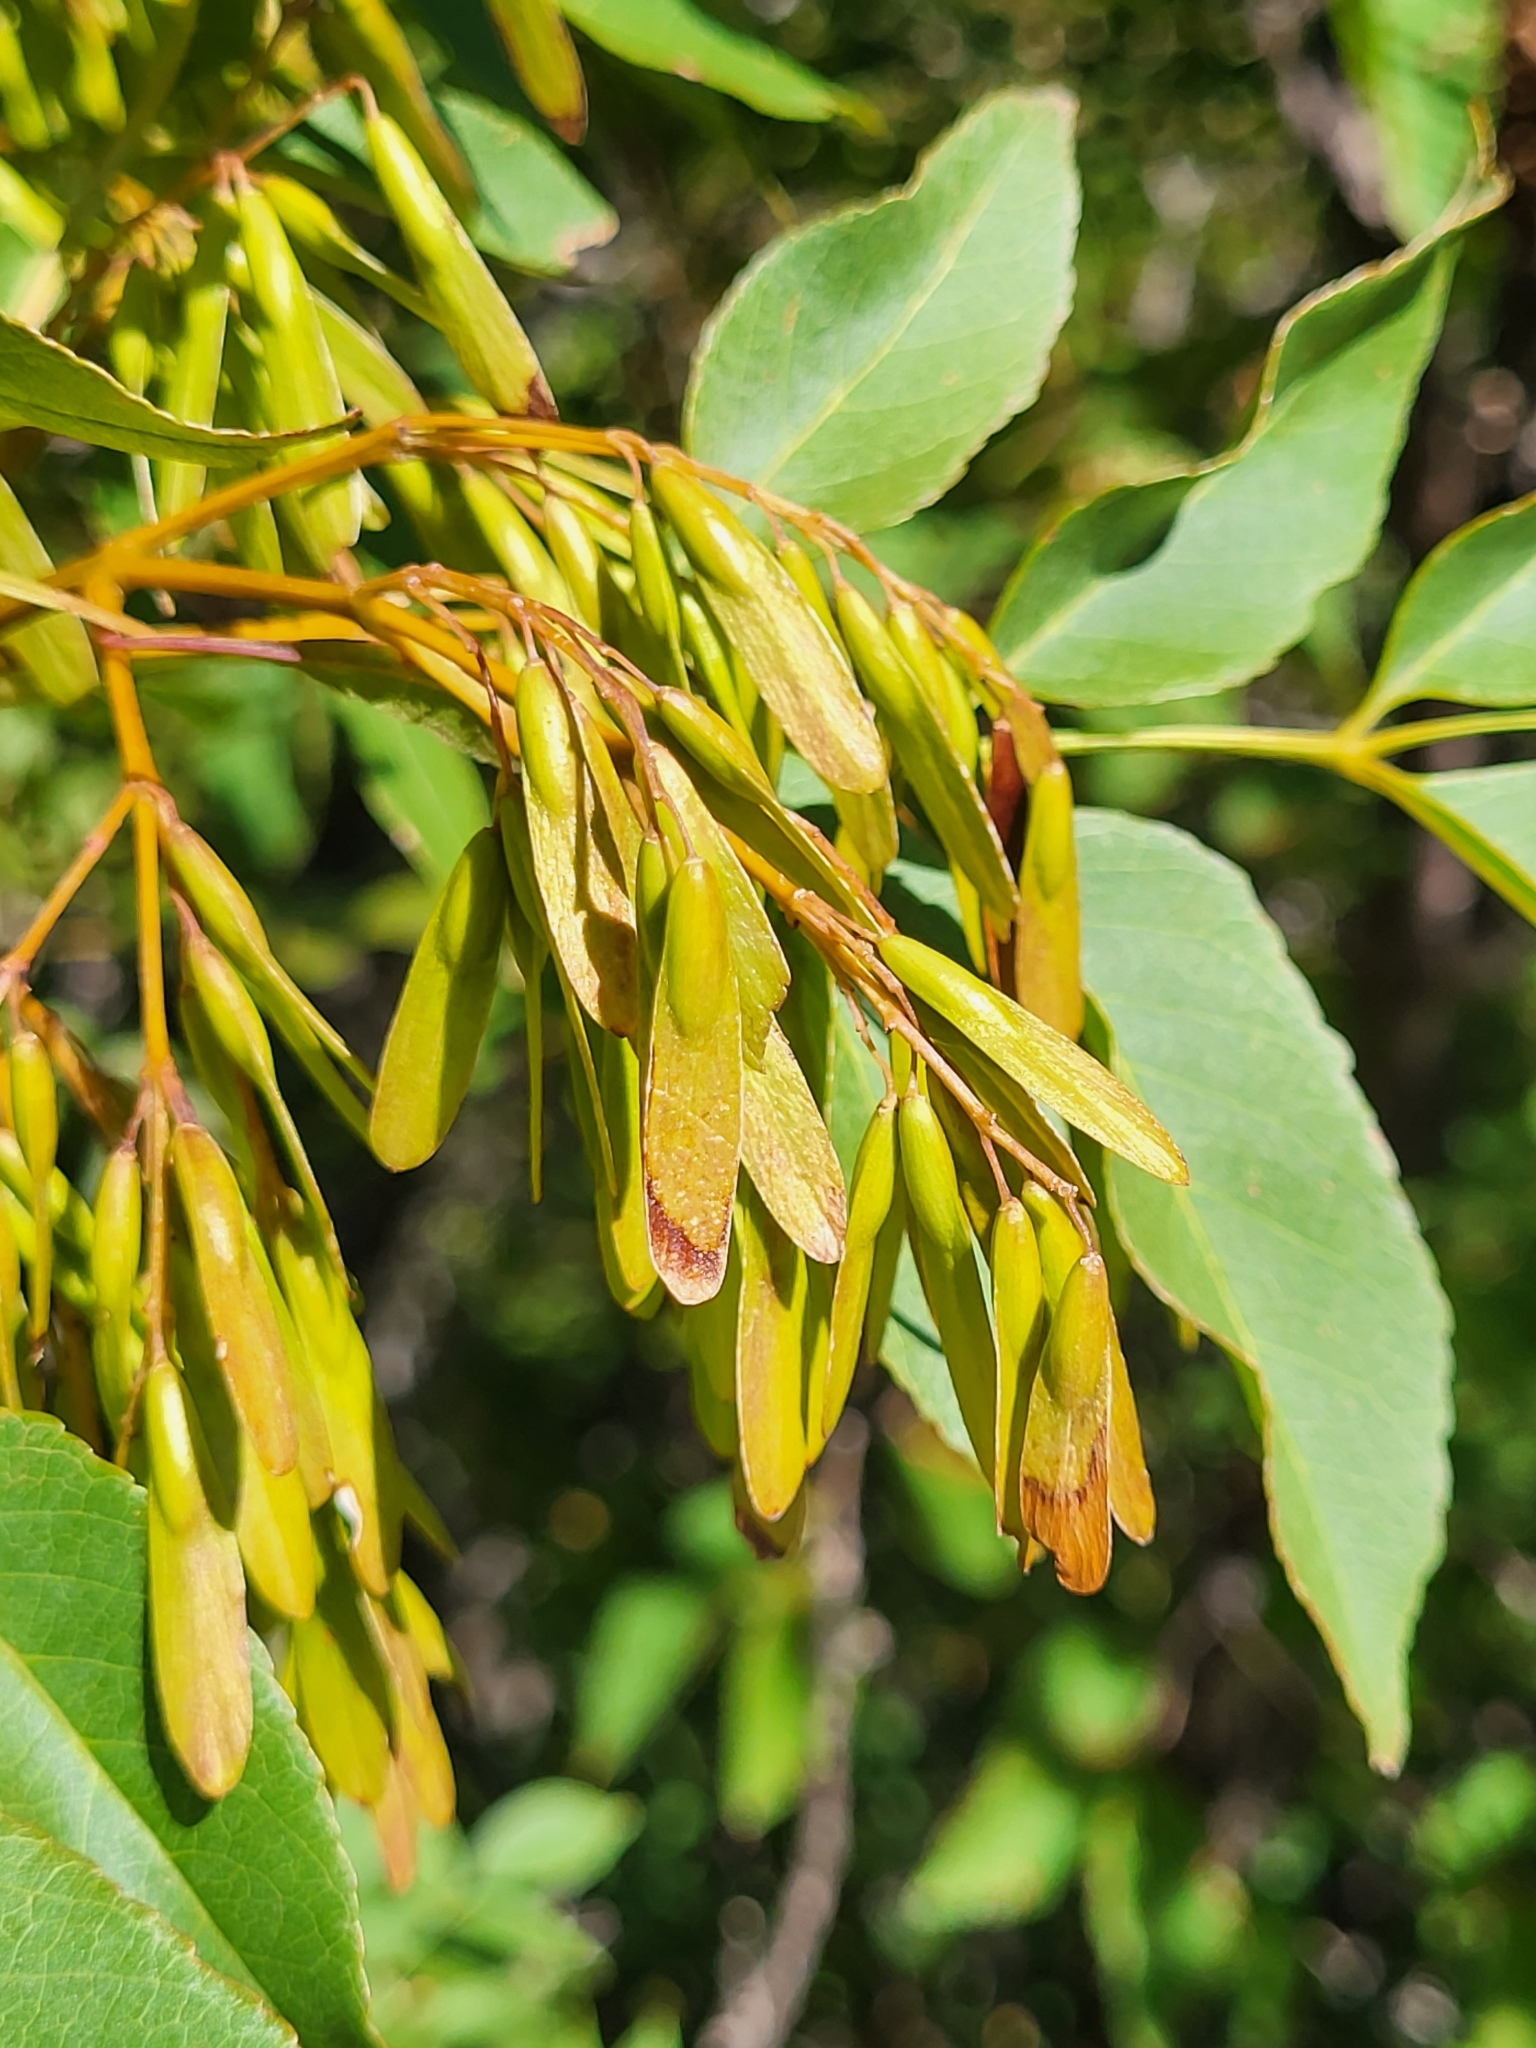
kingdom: Plantae
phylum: Tracheophyta
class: Magnoliopsida
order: Lamiales
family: Oleaceae
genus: Fraxinus
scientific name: Fraxinus ornus
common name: Manna ash
